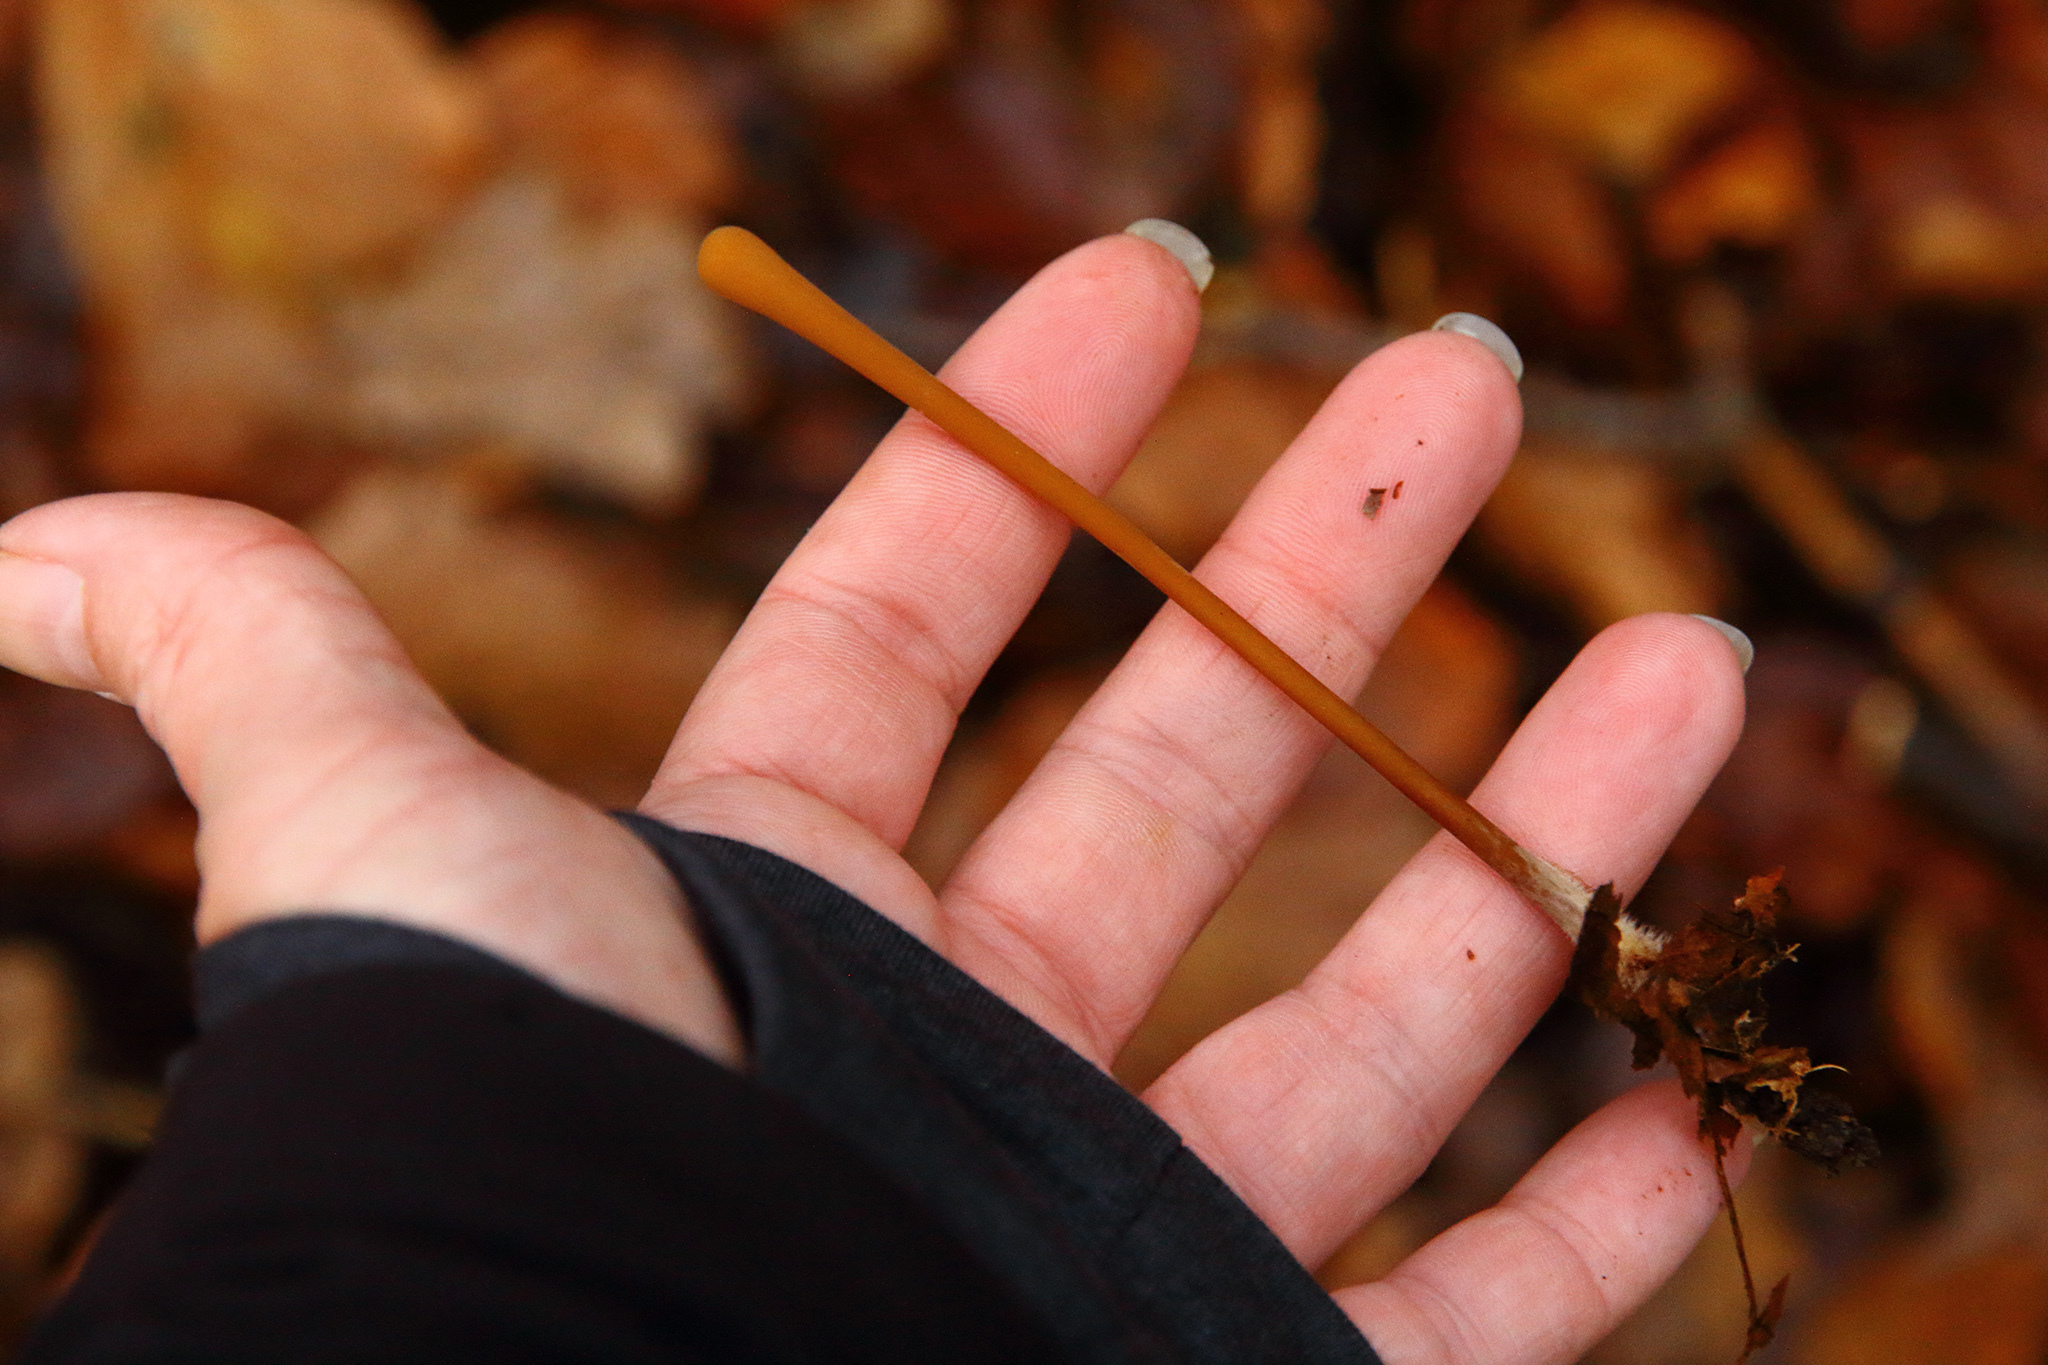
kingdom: Fungi
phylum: Basidiomycota
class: Agaricomycetes
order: Agaricales
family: Typhulaceae
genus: Typhula
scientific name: Typhula fistulosa
